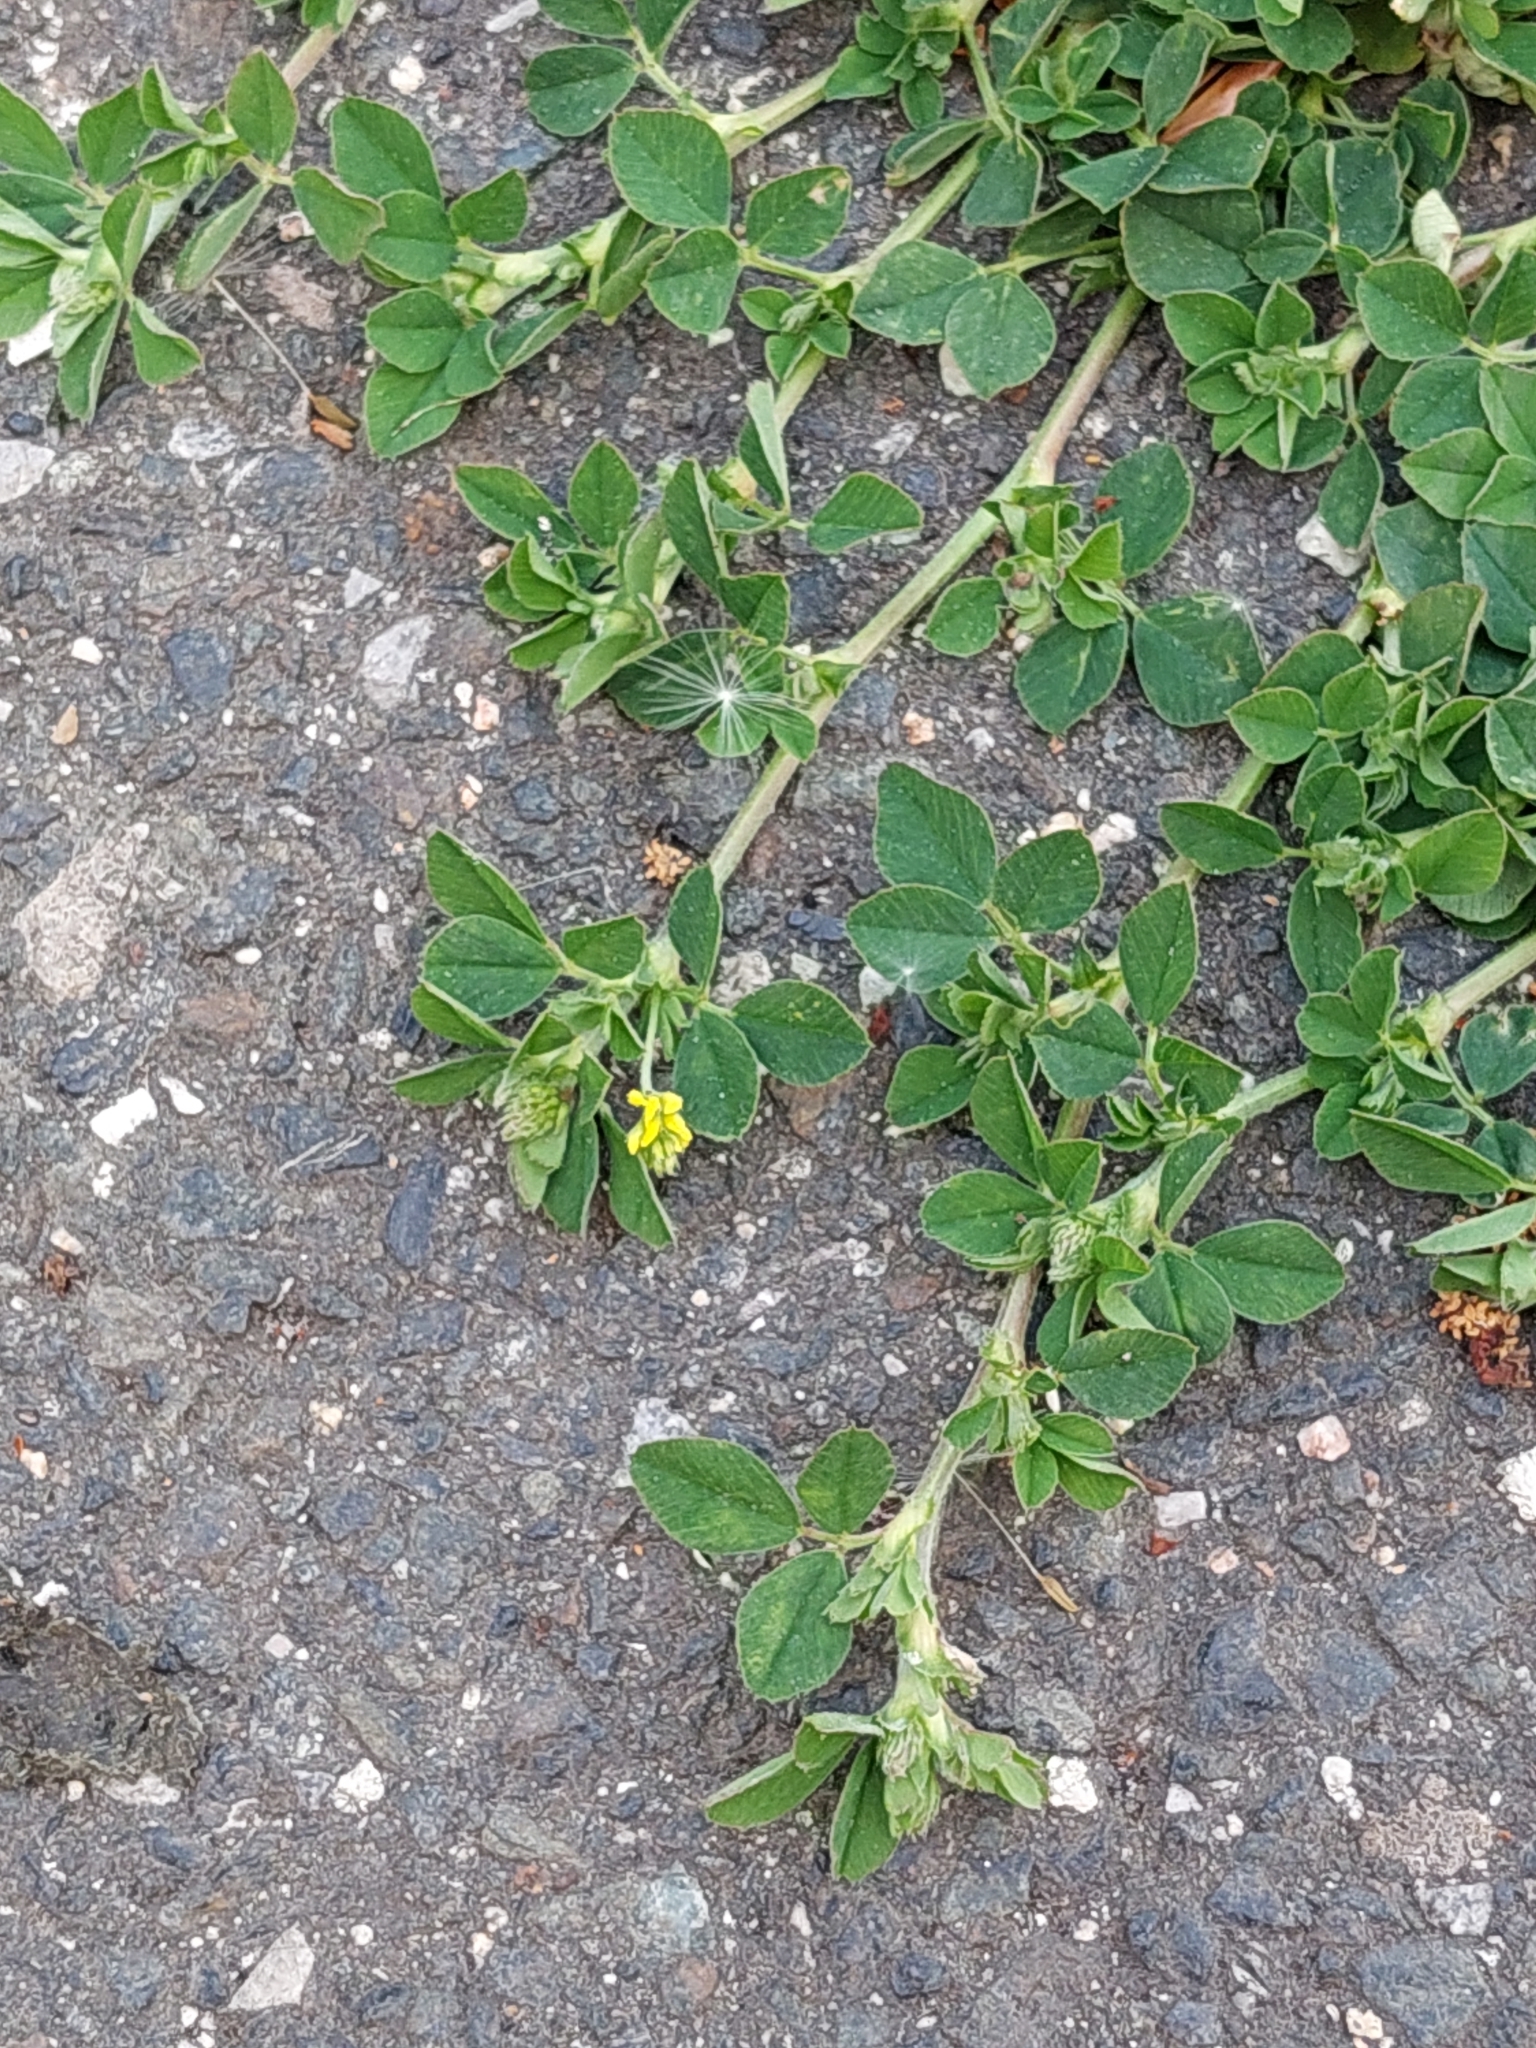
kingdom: Plantae
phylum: Tracheophyta
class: Magnoliopsida
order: Fabales
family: Fabaceae
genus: Medicago
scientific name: Medicago lupulina
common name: Black medick
